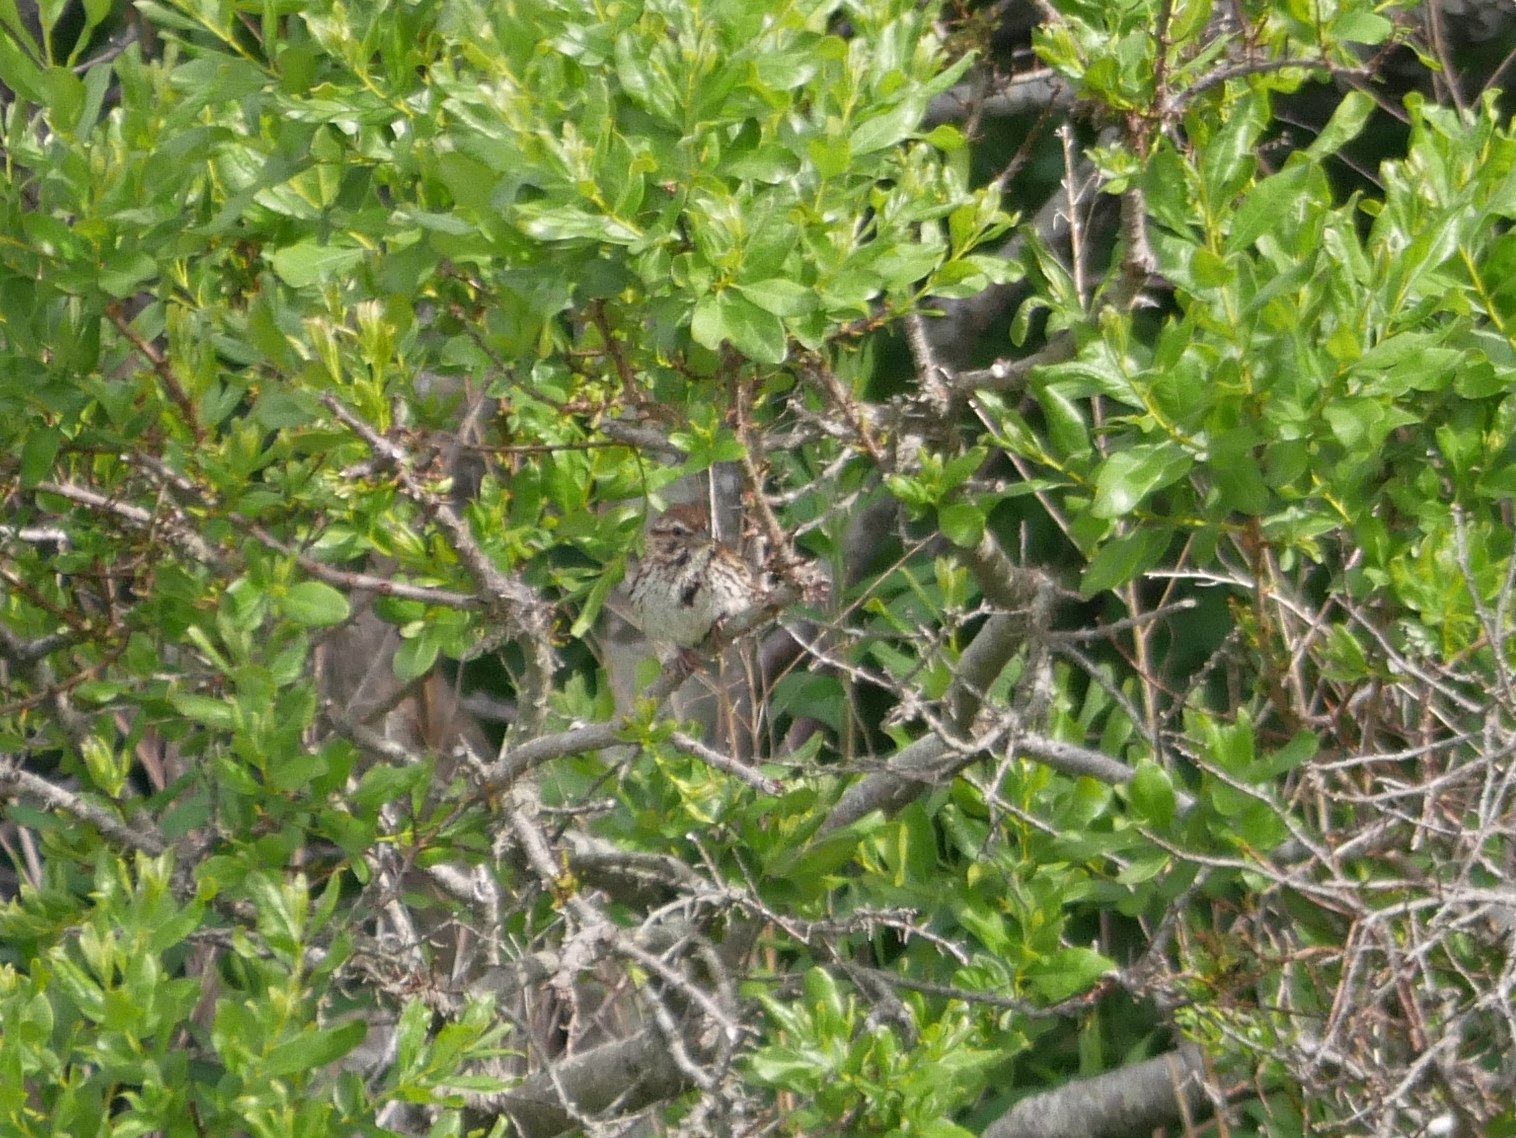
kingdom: Animalia
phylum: Chordata
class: Aves
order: Passeriformes
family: Passerellidae
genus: Melospiza
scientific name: Melospiza melodia
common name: Song sparrow
